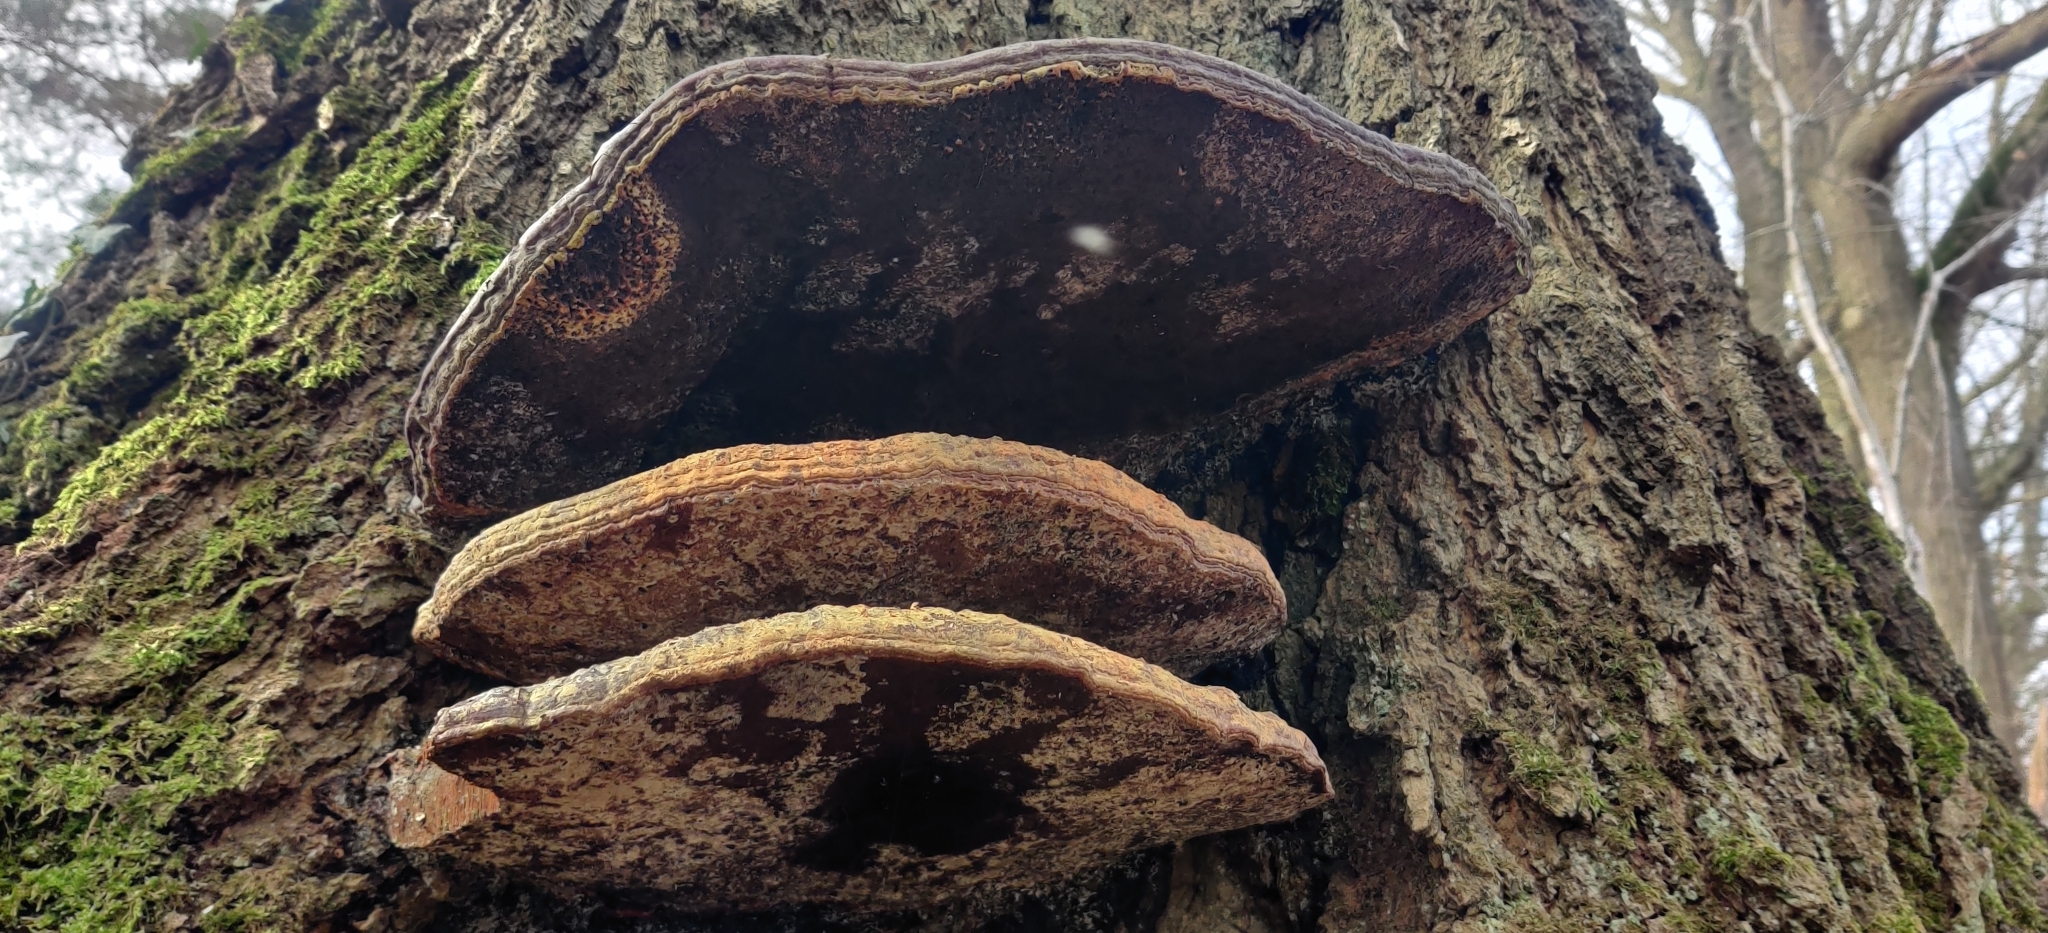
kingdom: Fungi
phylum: Basidiomycota
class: Agaricomycetes
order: Polyporales
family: Polyporaceae
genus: Ganoderma
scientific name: Ganoderma resinaceum
